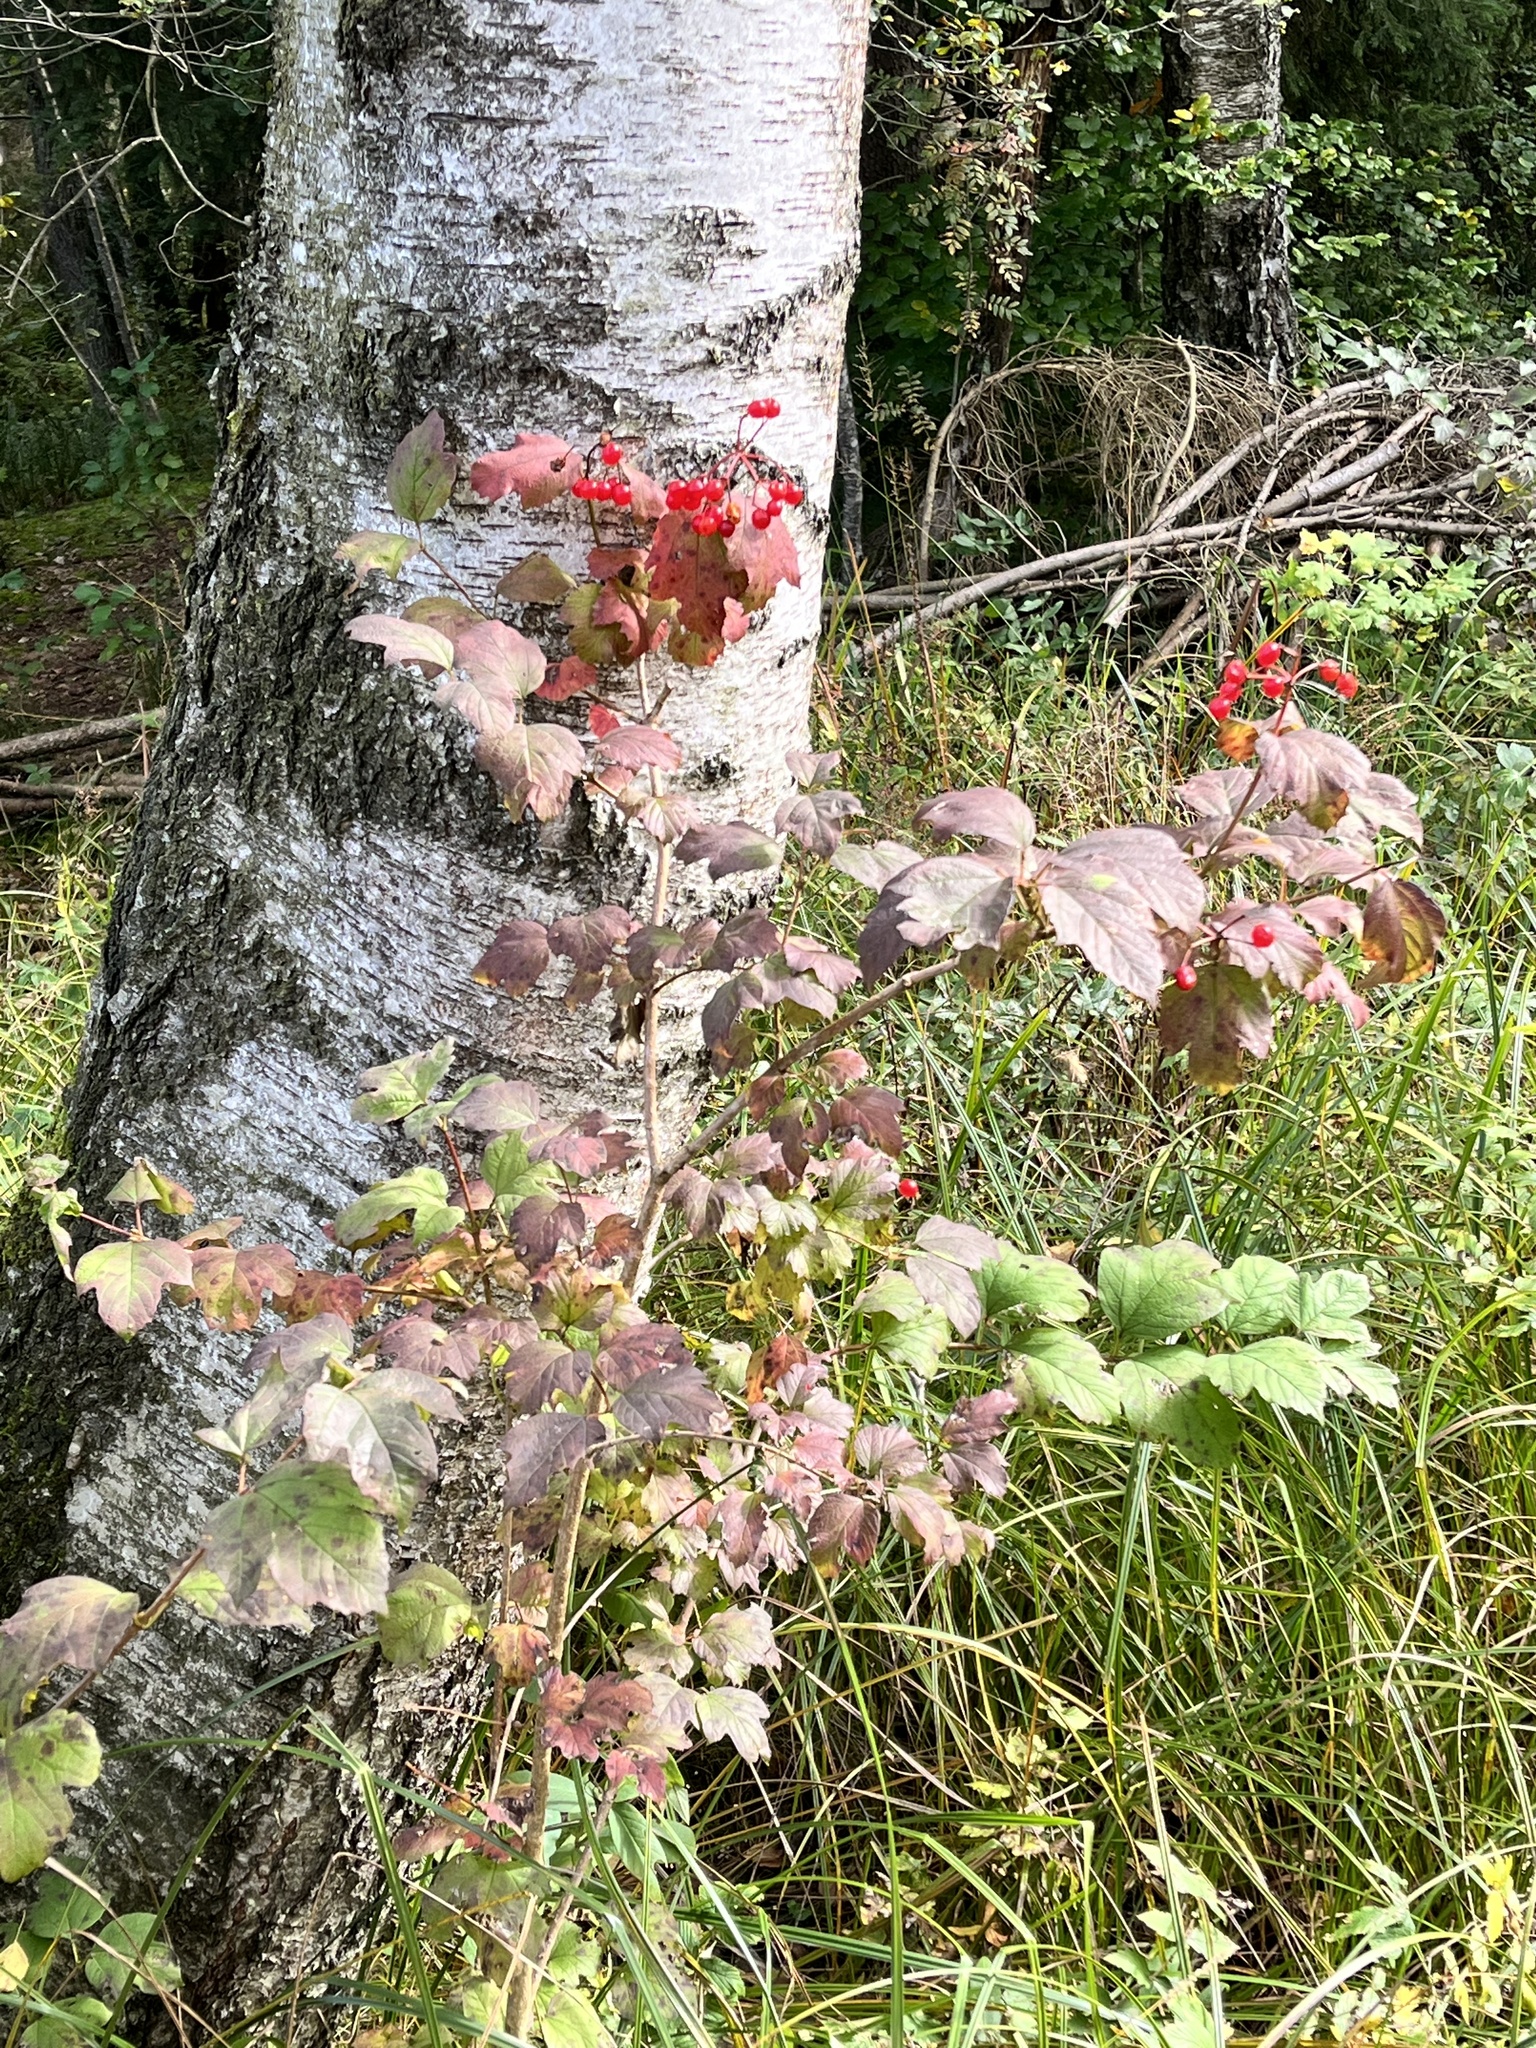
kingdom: Plantae
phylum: Tracheophyta
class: Magnoliopsida
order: Dipsacales
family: Viburnaceae
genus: Viburnum
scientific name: Viburnum opulus
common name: Guelder-rose
